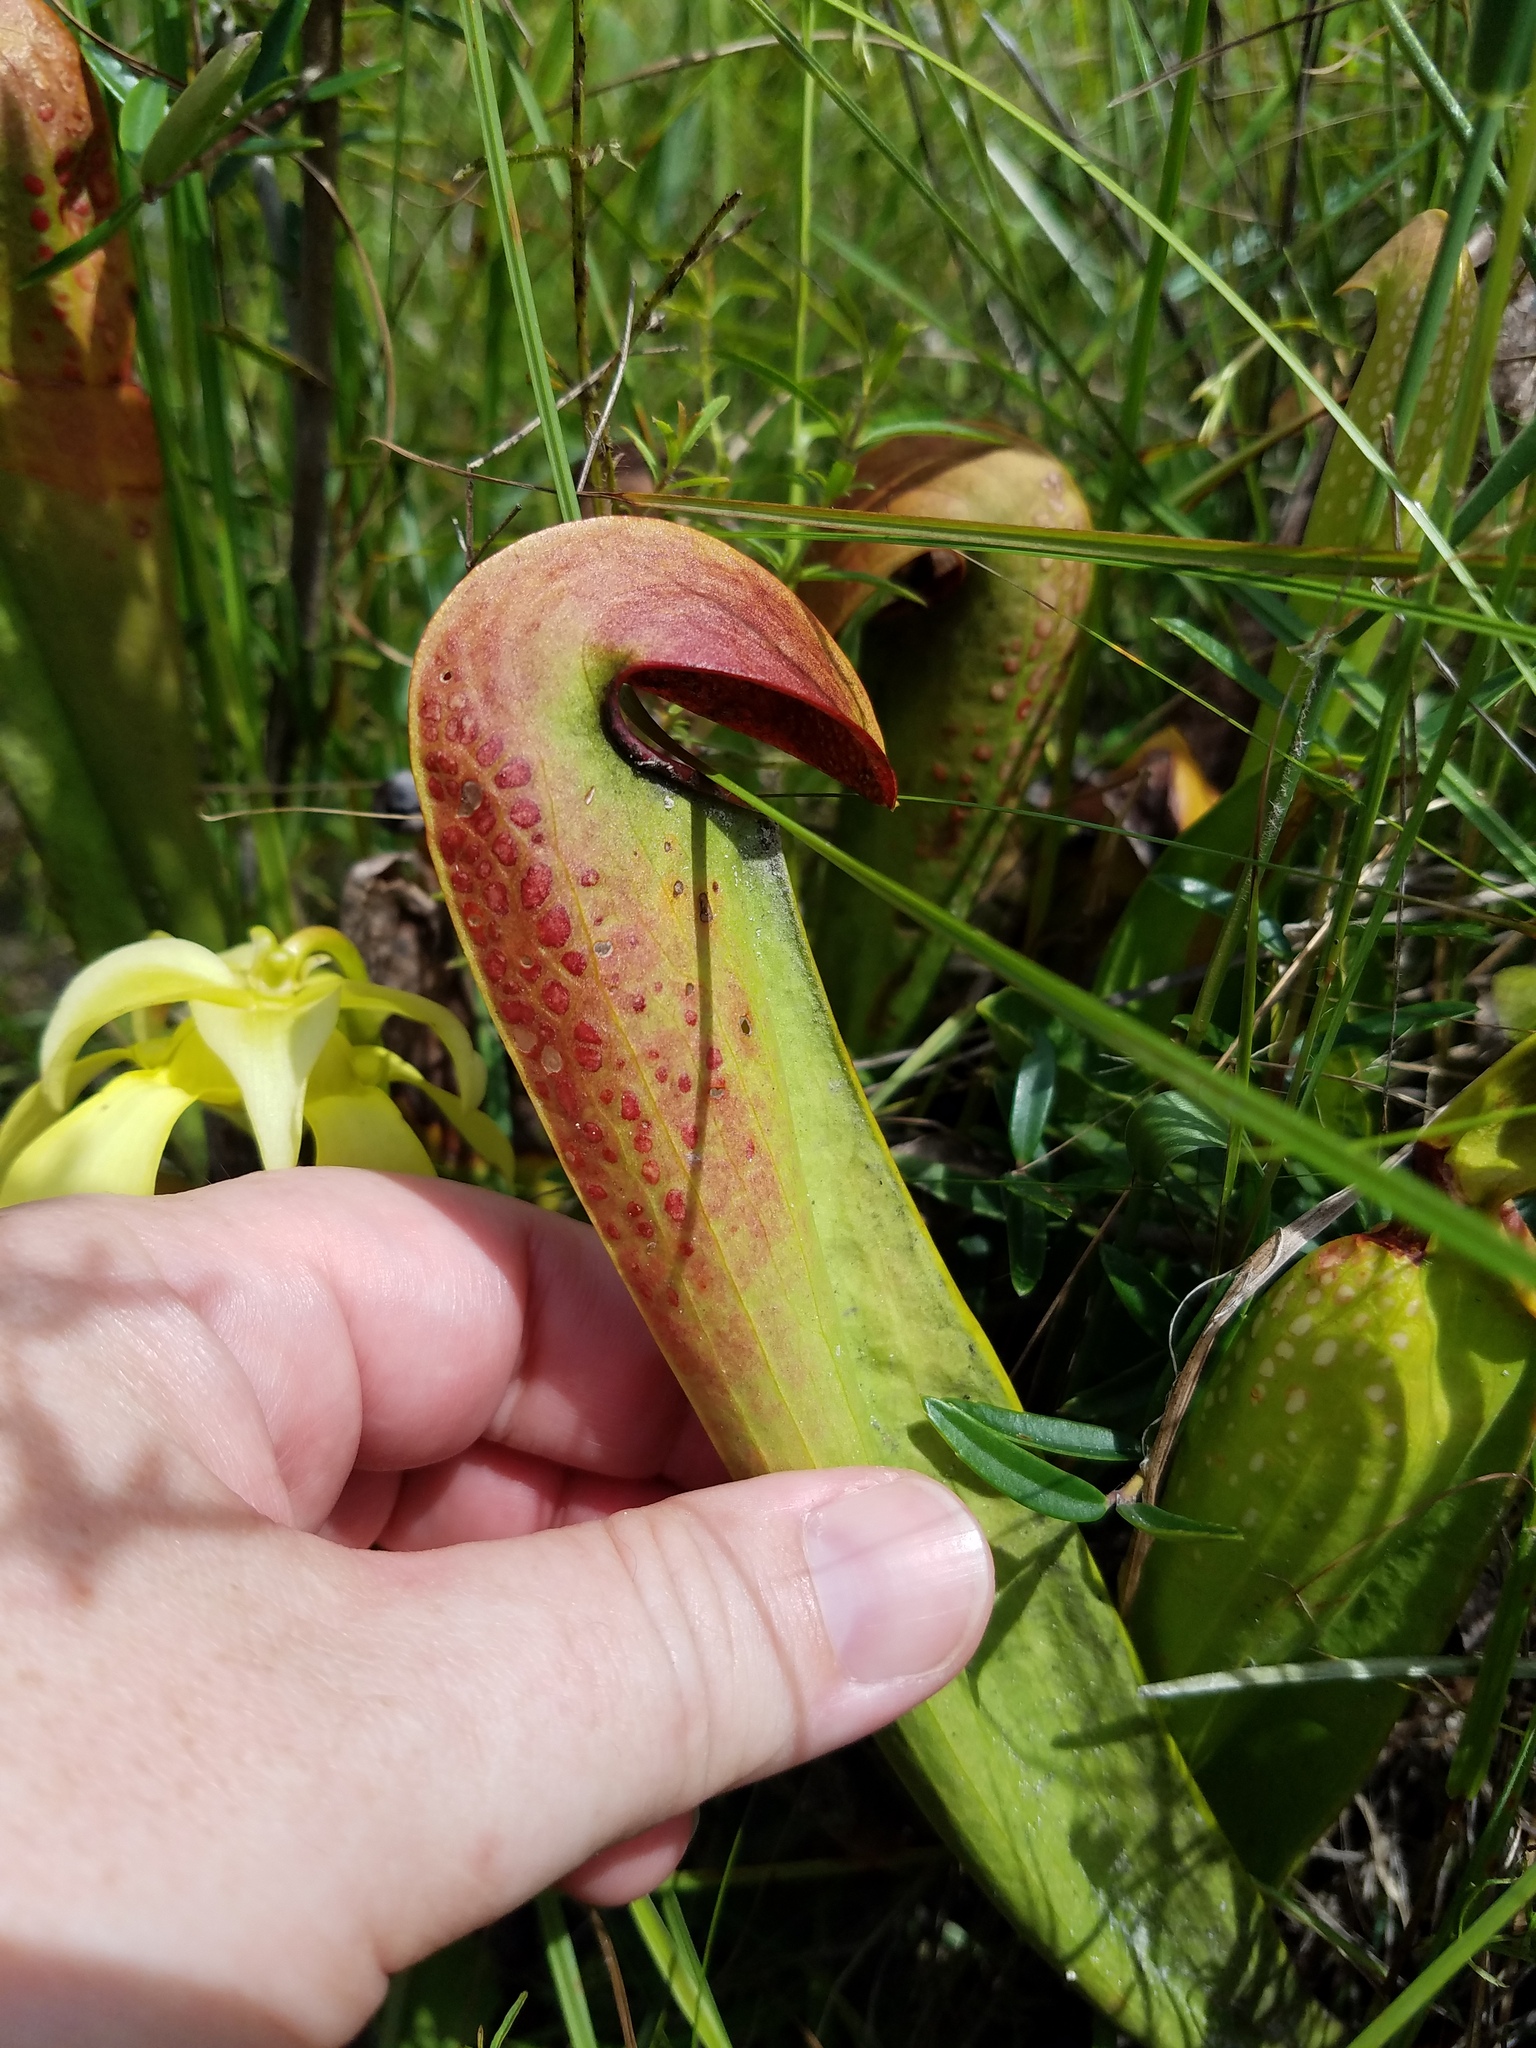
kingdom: Plantae
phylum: Tracheophyta
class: Magnoliopsida
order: Ericales
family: Sarraceniaceae
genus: Sarracenia
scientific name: Sarracenia minor
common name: Rainhat-trumpet
